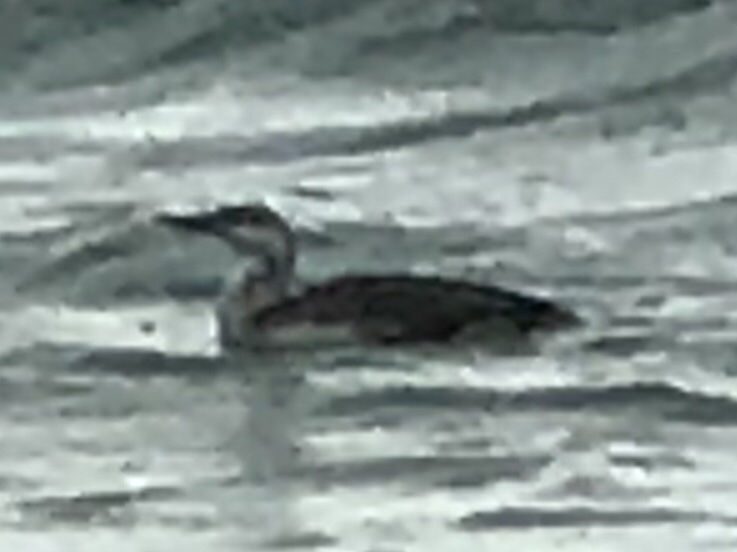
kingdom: Animalia
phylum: Chordata
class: Aves
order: Gaviiformes
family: Gaviidae
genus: Gavia
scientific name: Gavia stellata
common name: Red-throated loon
